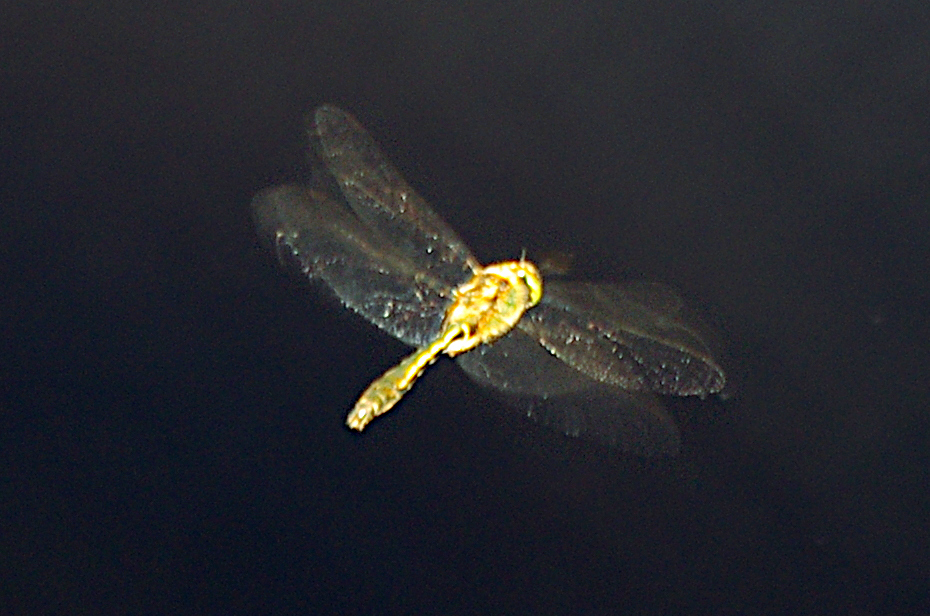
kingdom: Animalia
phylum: Arthropoda
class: Insecta
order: Odonata
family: Corduliidae
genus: Cordulia
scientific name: Cordulia aenea
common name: Downy emerald
